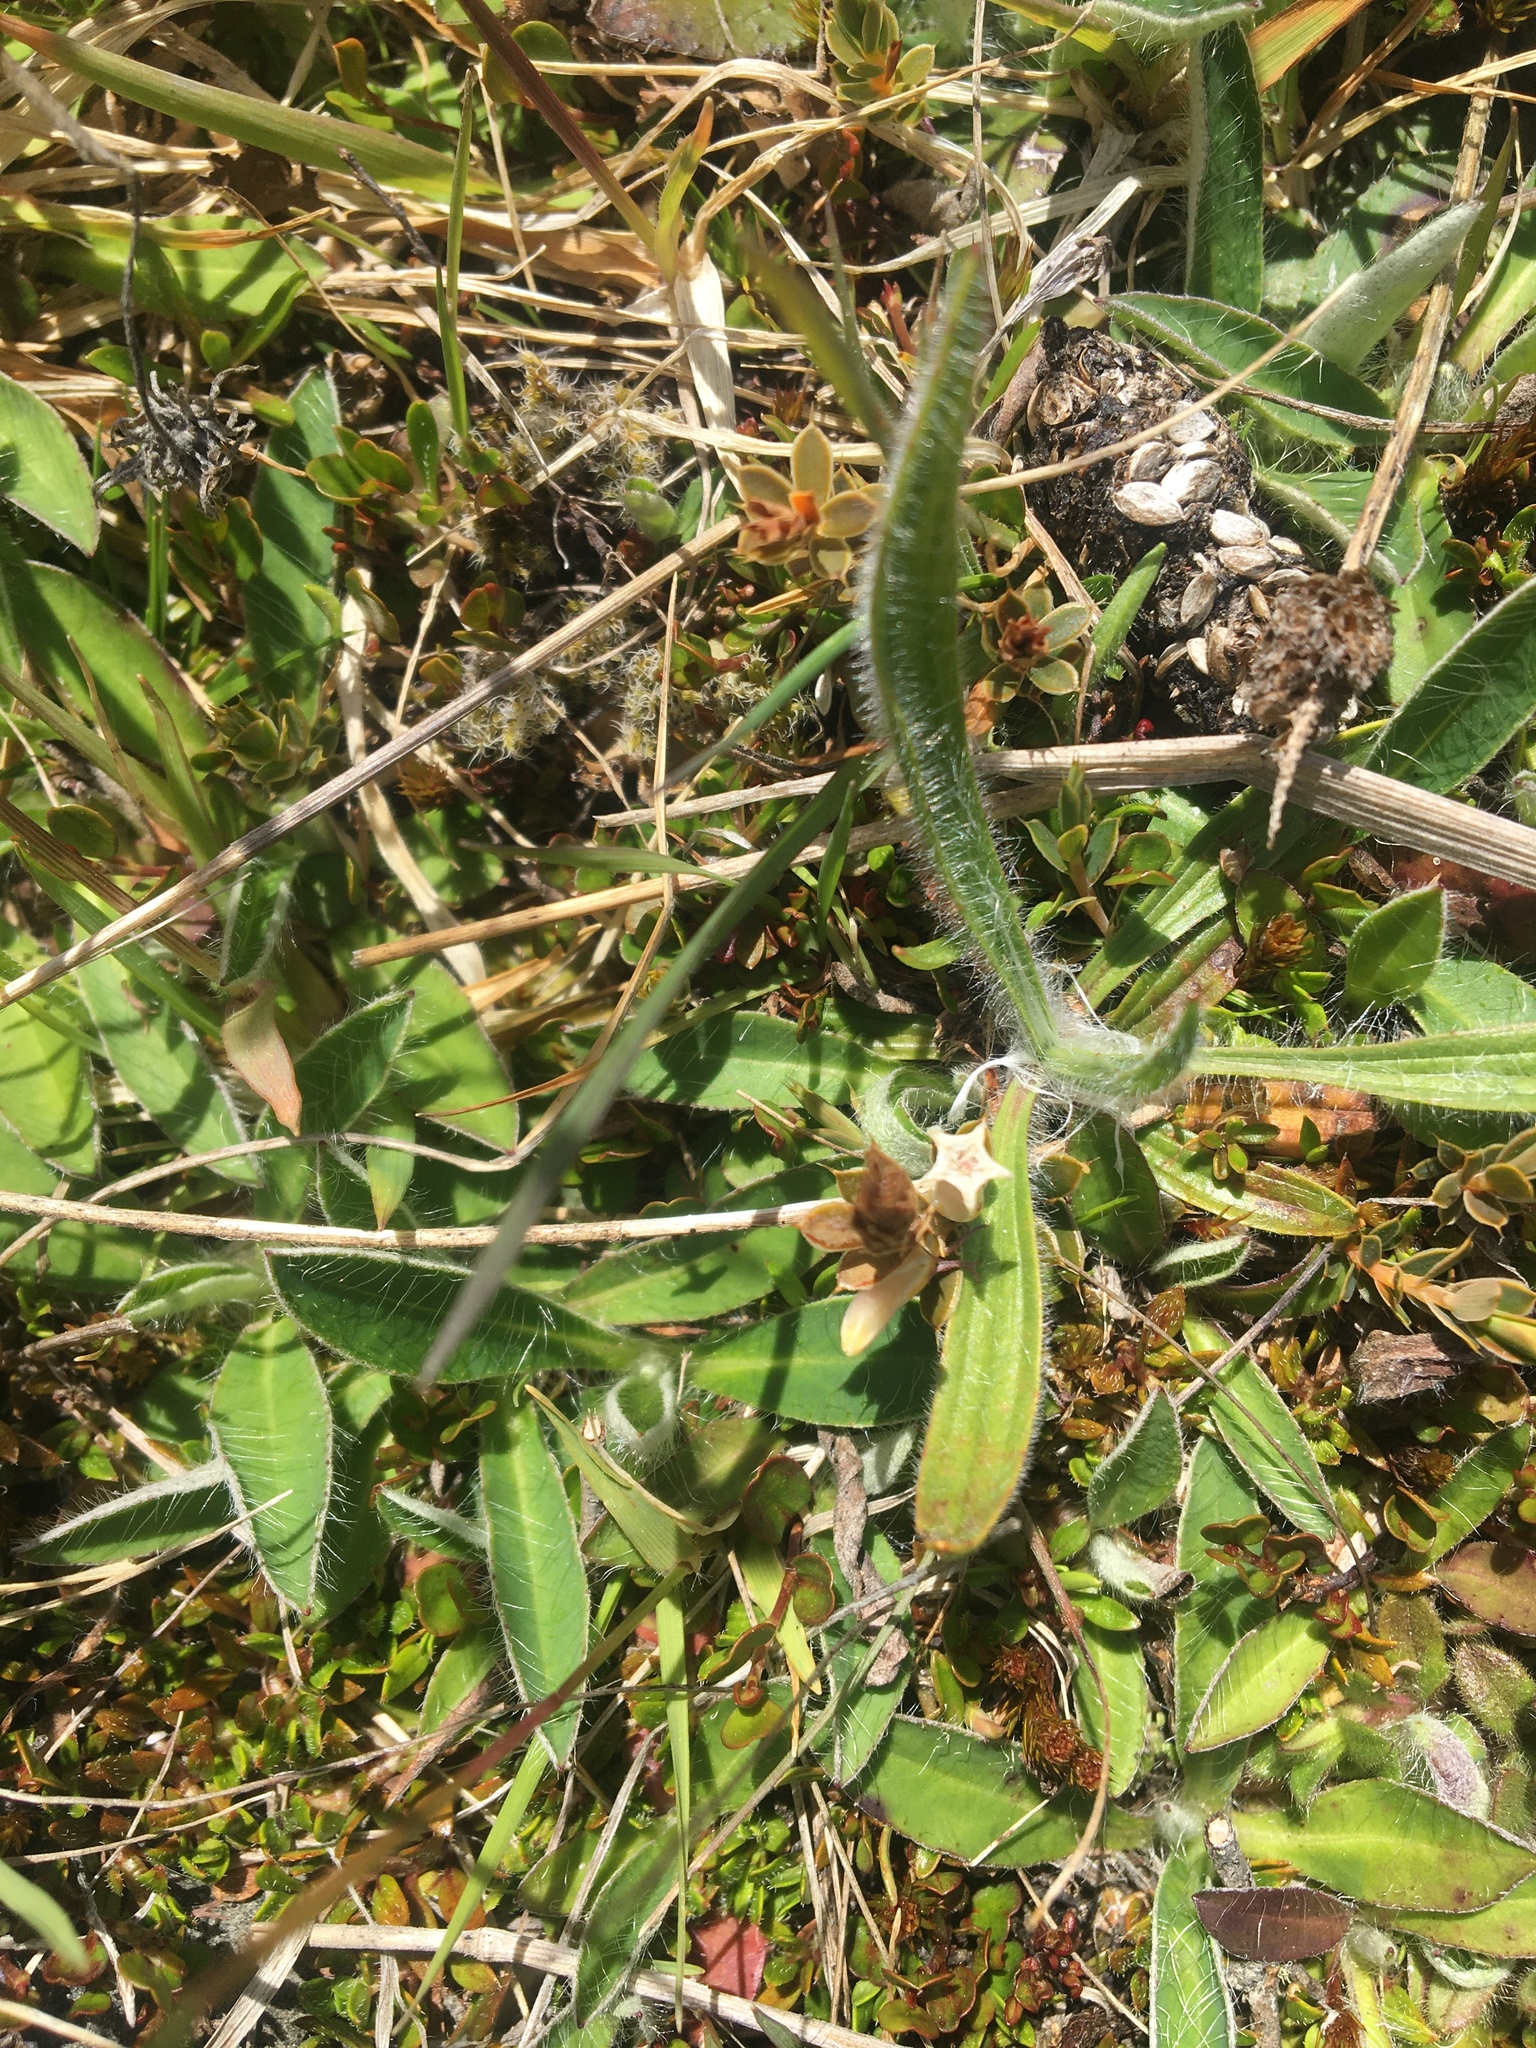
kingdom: Plantae
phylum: Tracheophyta
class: Magnoliopsida
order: Ericales
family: Ericaceae
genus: Styphelia
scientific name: Styphelia nesophila
